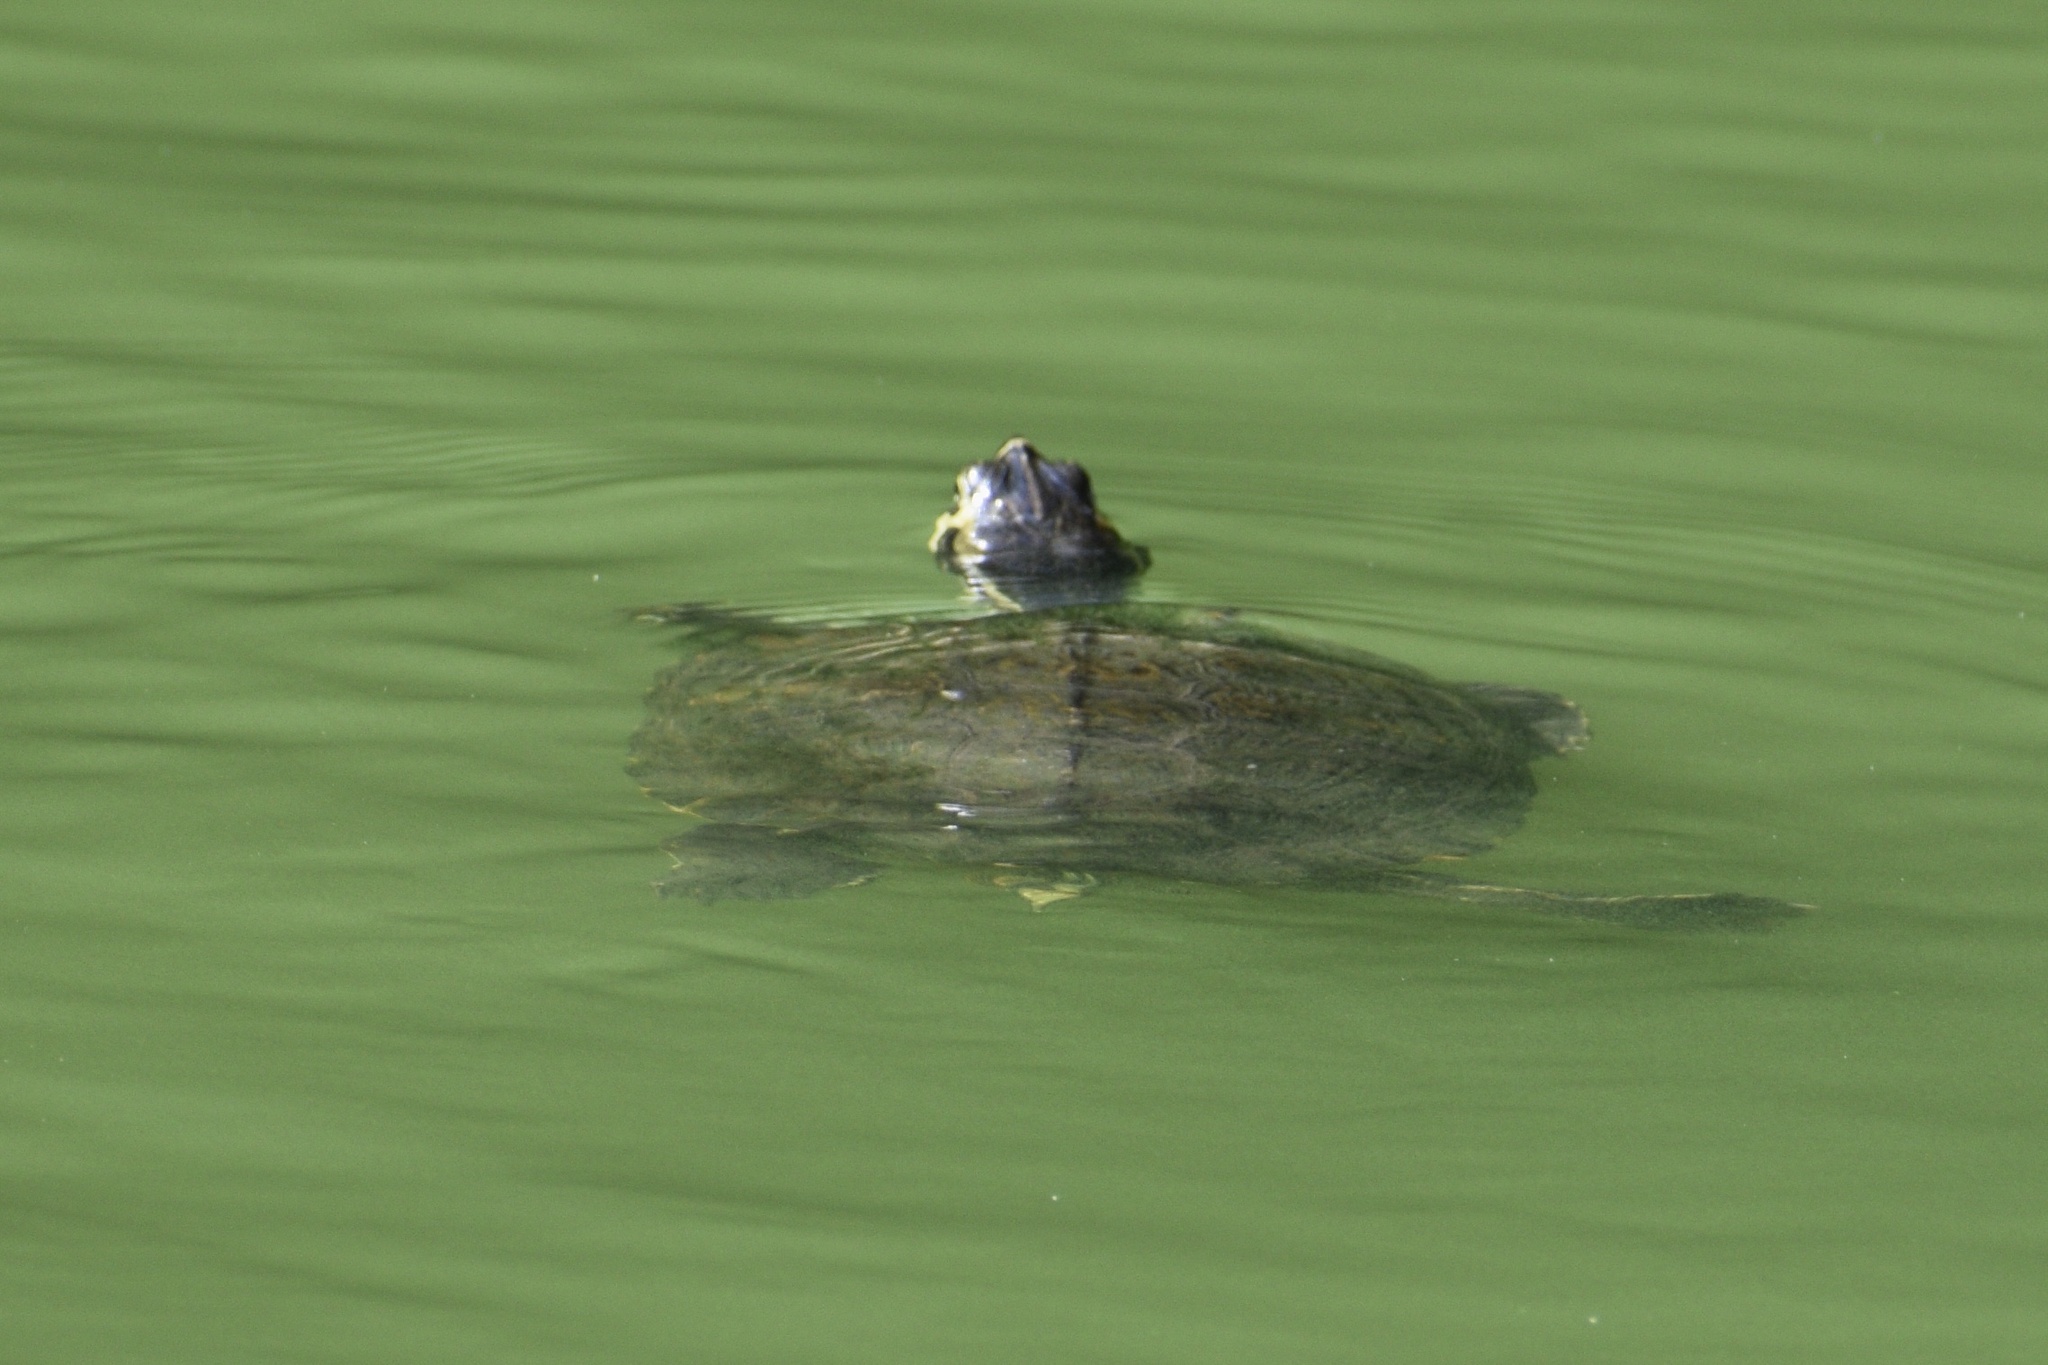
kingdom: Animalia
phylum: Chordata
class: Testudines
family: Emydidae
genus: Trachemys
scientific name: Trachemys scripta
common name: Slider
